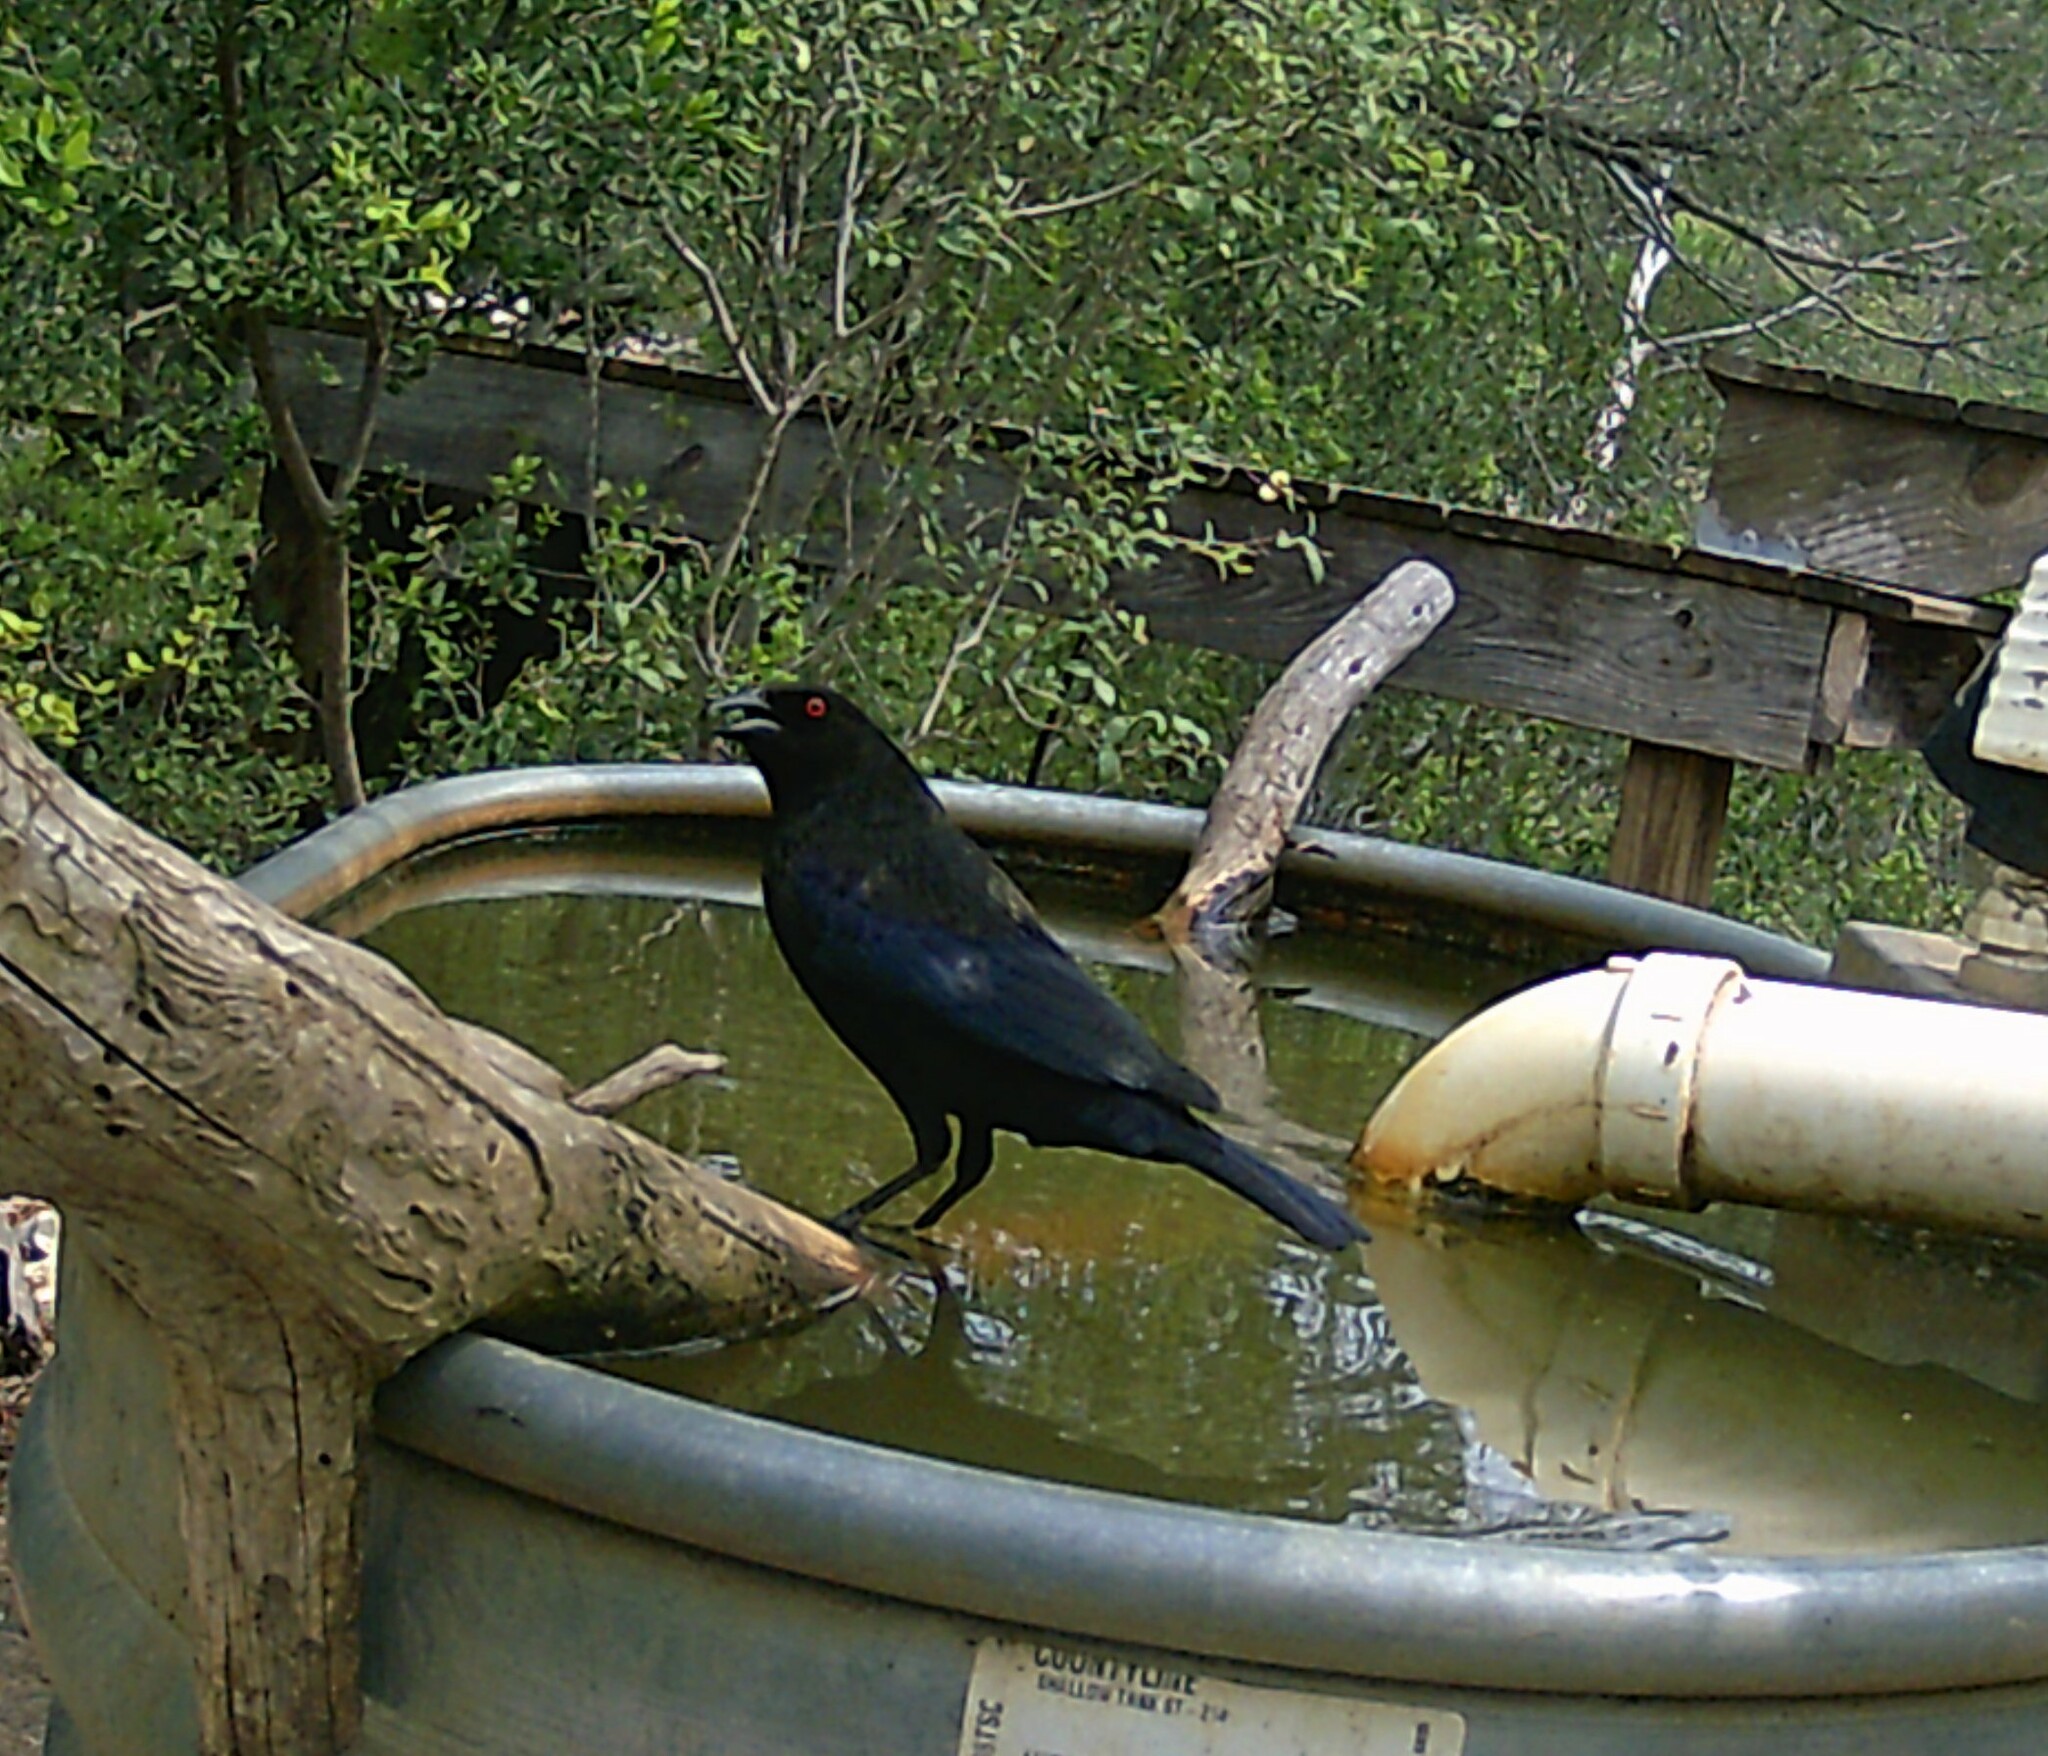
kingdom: Animalia
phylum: Chordata
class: Aves
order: Passeriformes
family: Icteridae
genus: Molothrus
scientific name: Molothrus aeneus
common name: Bronzed cowbird
